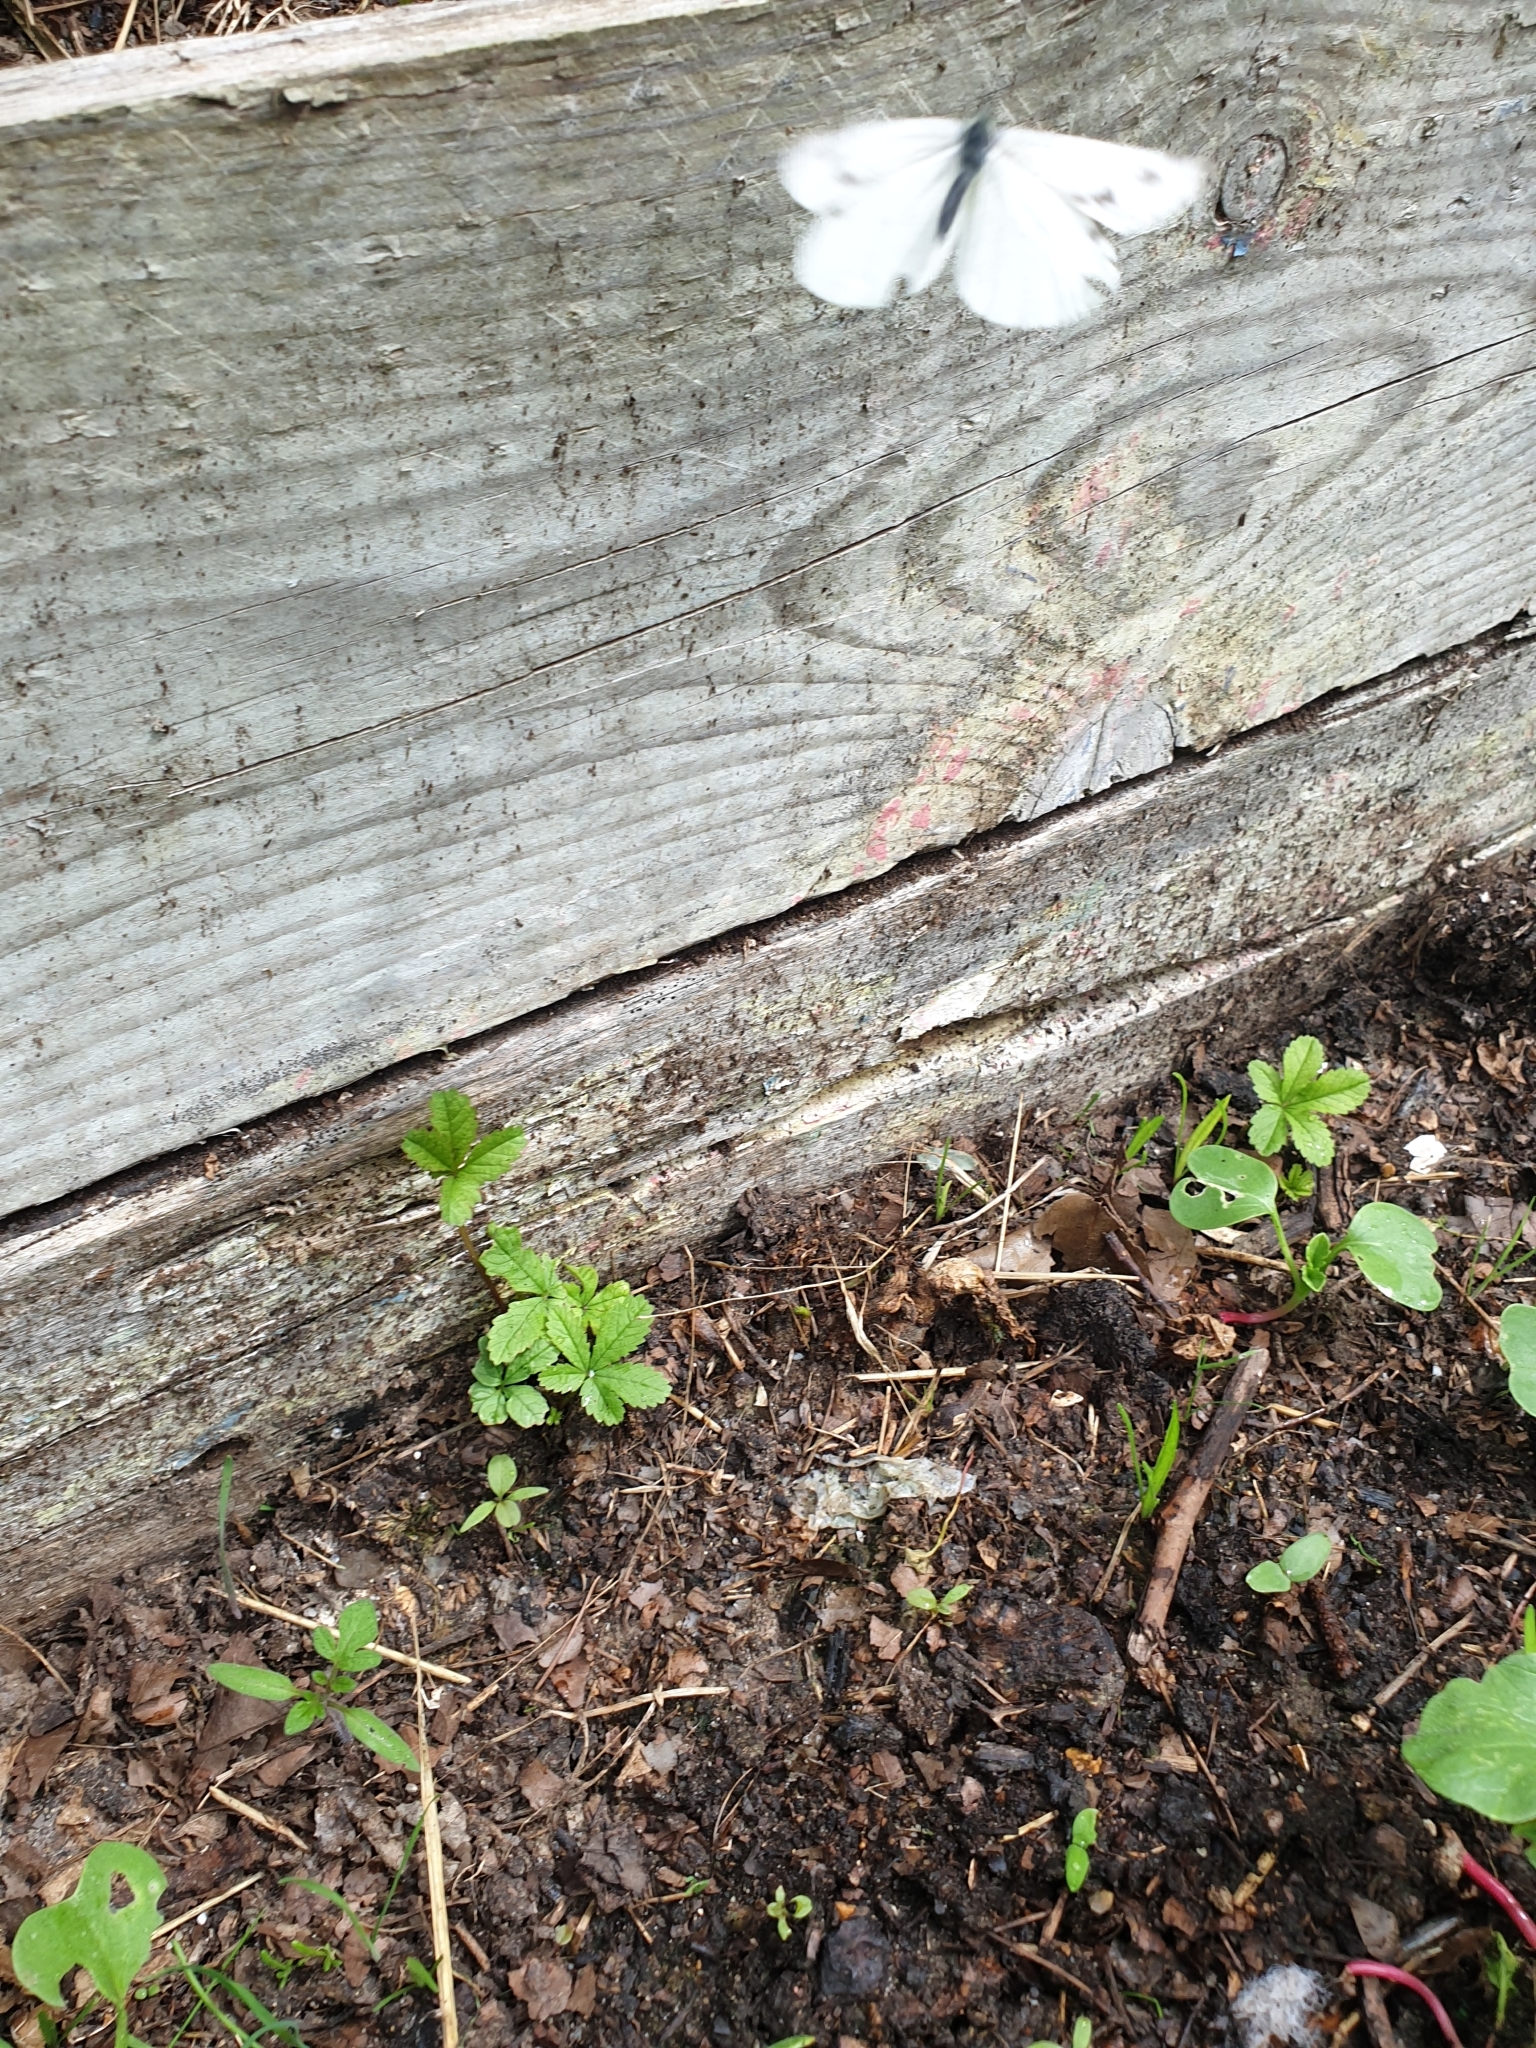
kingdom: Animalia
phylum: Arthropoda
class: Insecta
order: Lepidoptera
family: Pieridae
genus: Pieris
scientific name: Pieris napi
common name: Green-veined white
